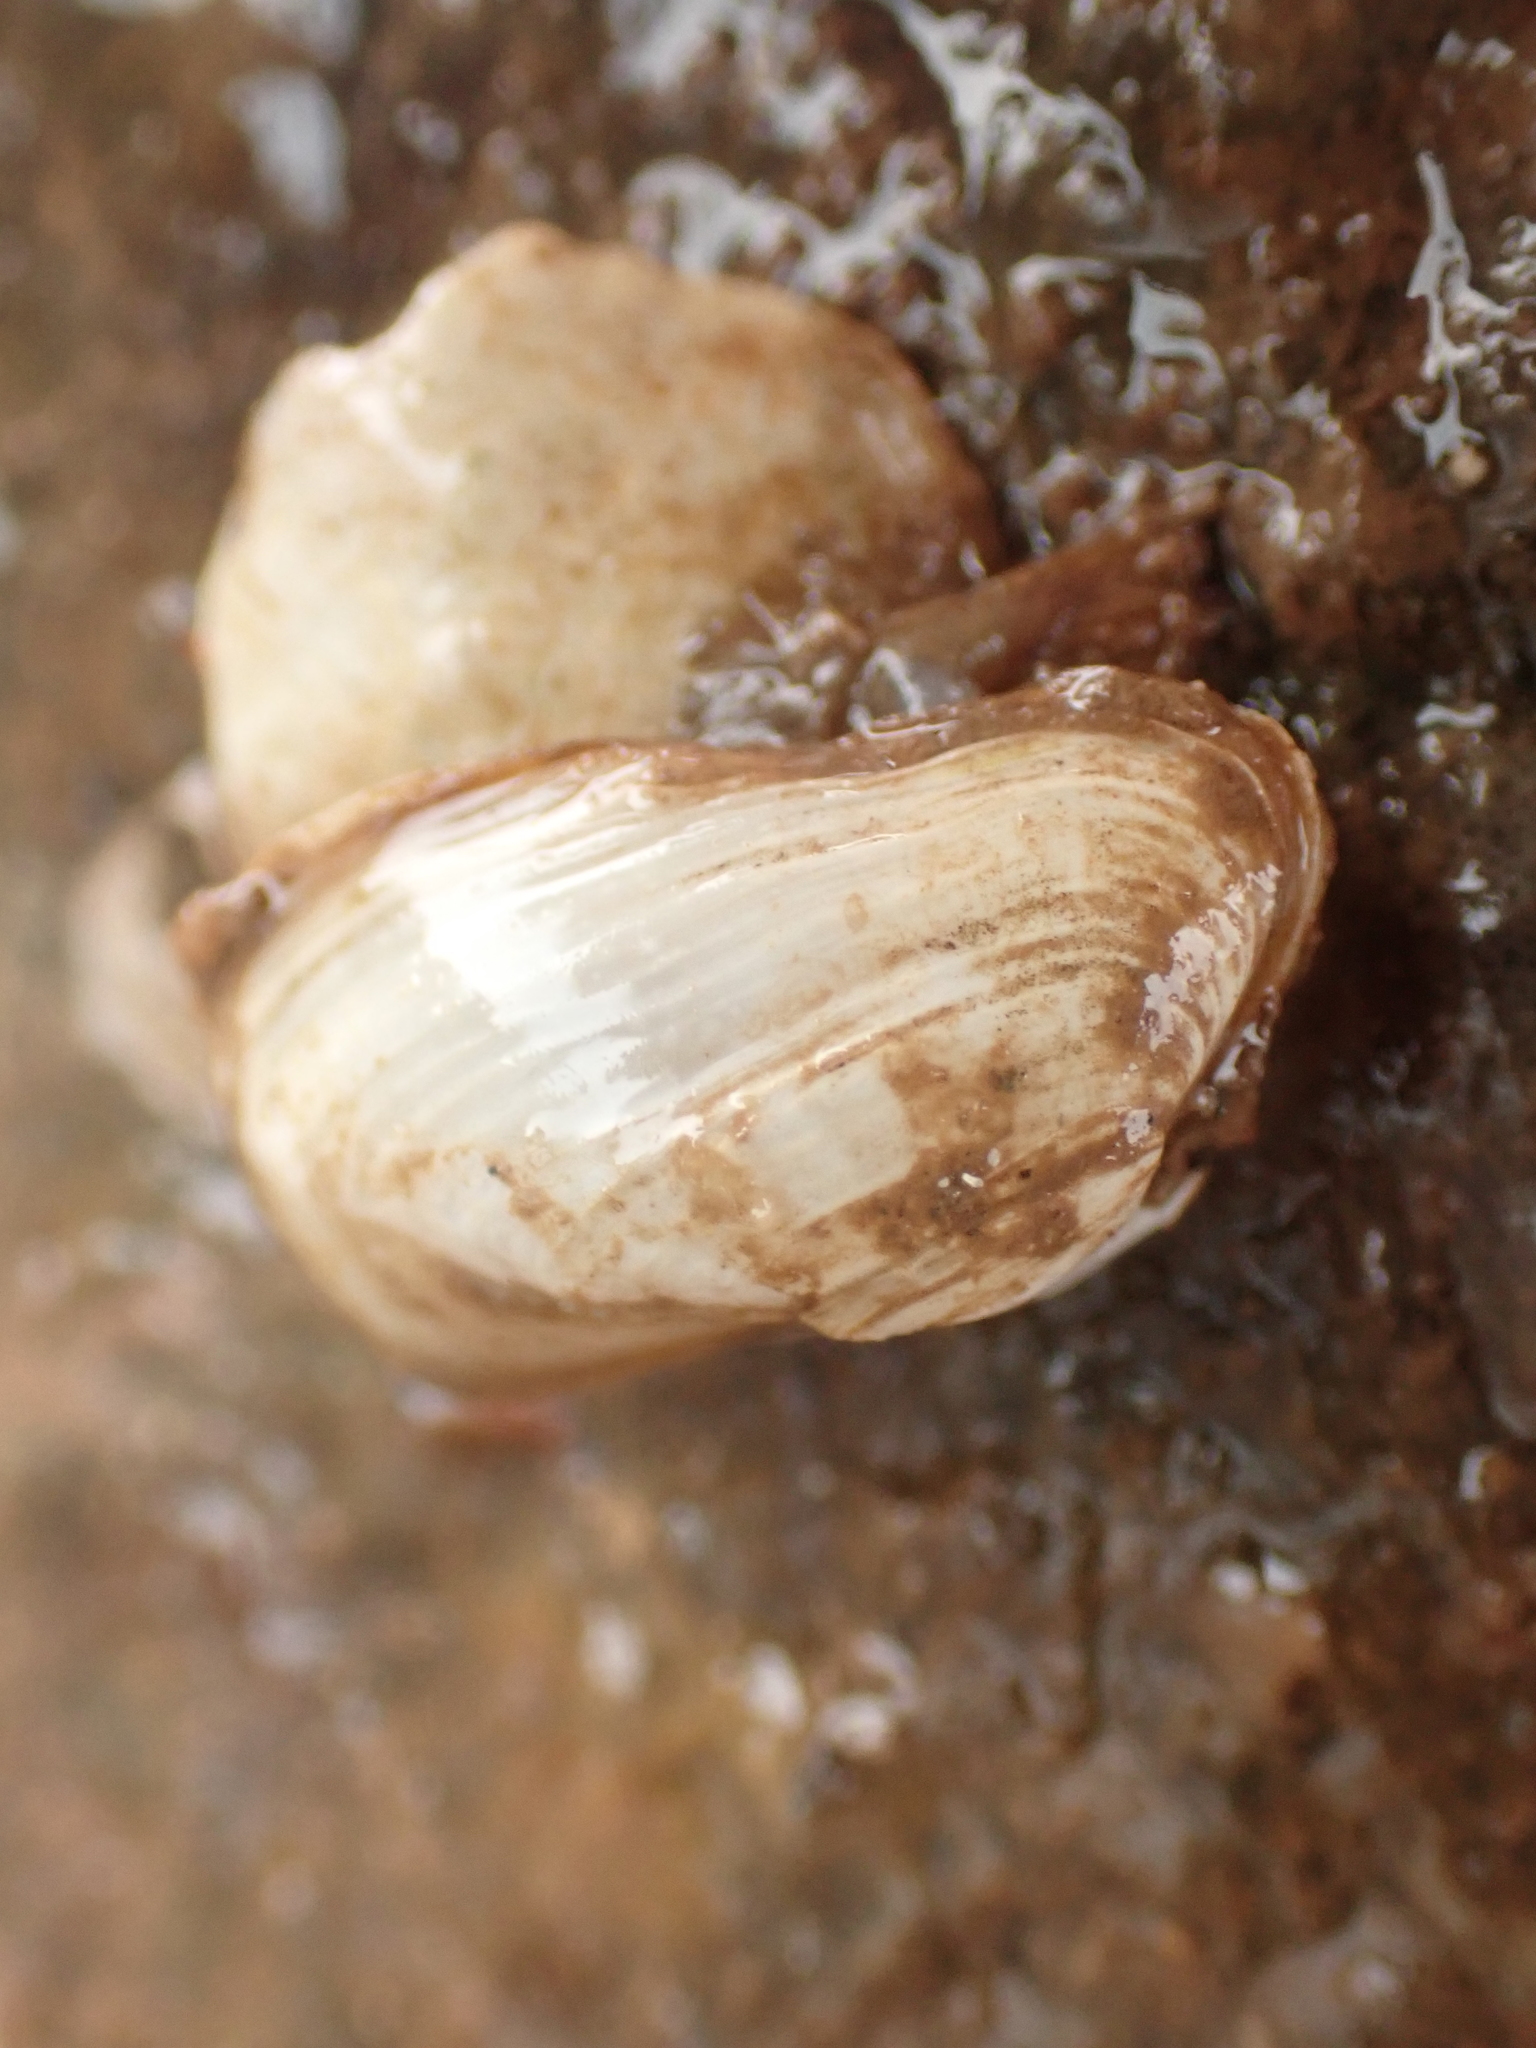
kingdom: Animalia
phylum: Mollusca
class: Bivalvia
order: Adapedonta
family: Hiatellidae
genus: Hiatella
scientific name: Hiatella arctica
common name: Arctic hiatella
